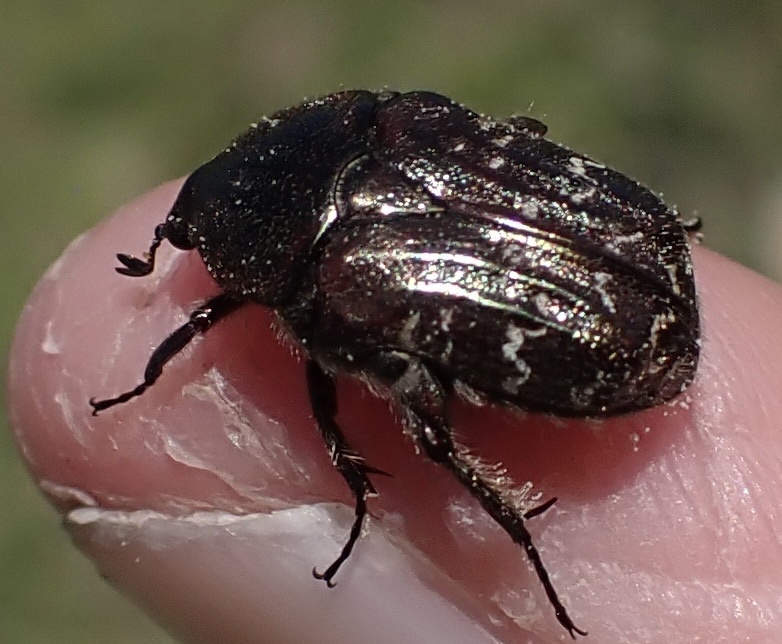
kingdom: Animalia
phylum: Arthropoda
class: Insecta
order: Coleoptera
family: Scarabaeidae
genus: Euphoria
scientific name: Euphoria sepulcralis
